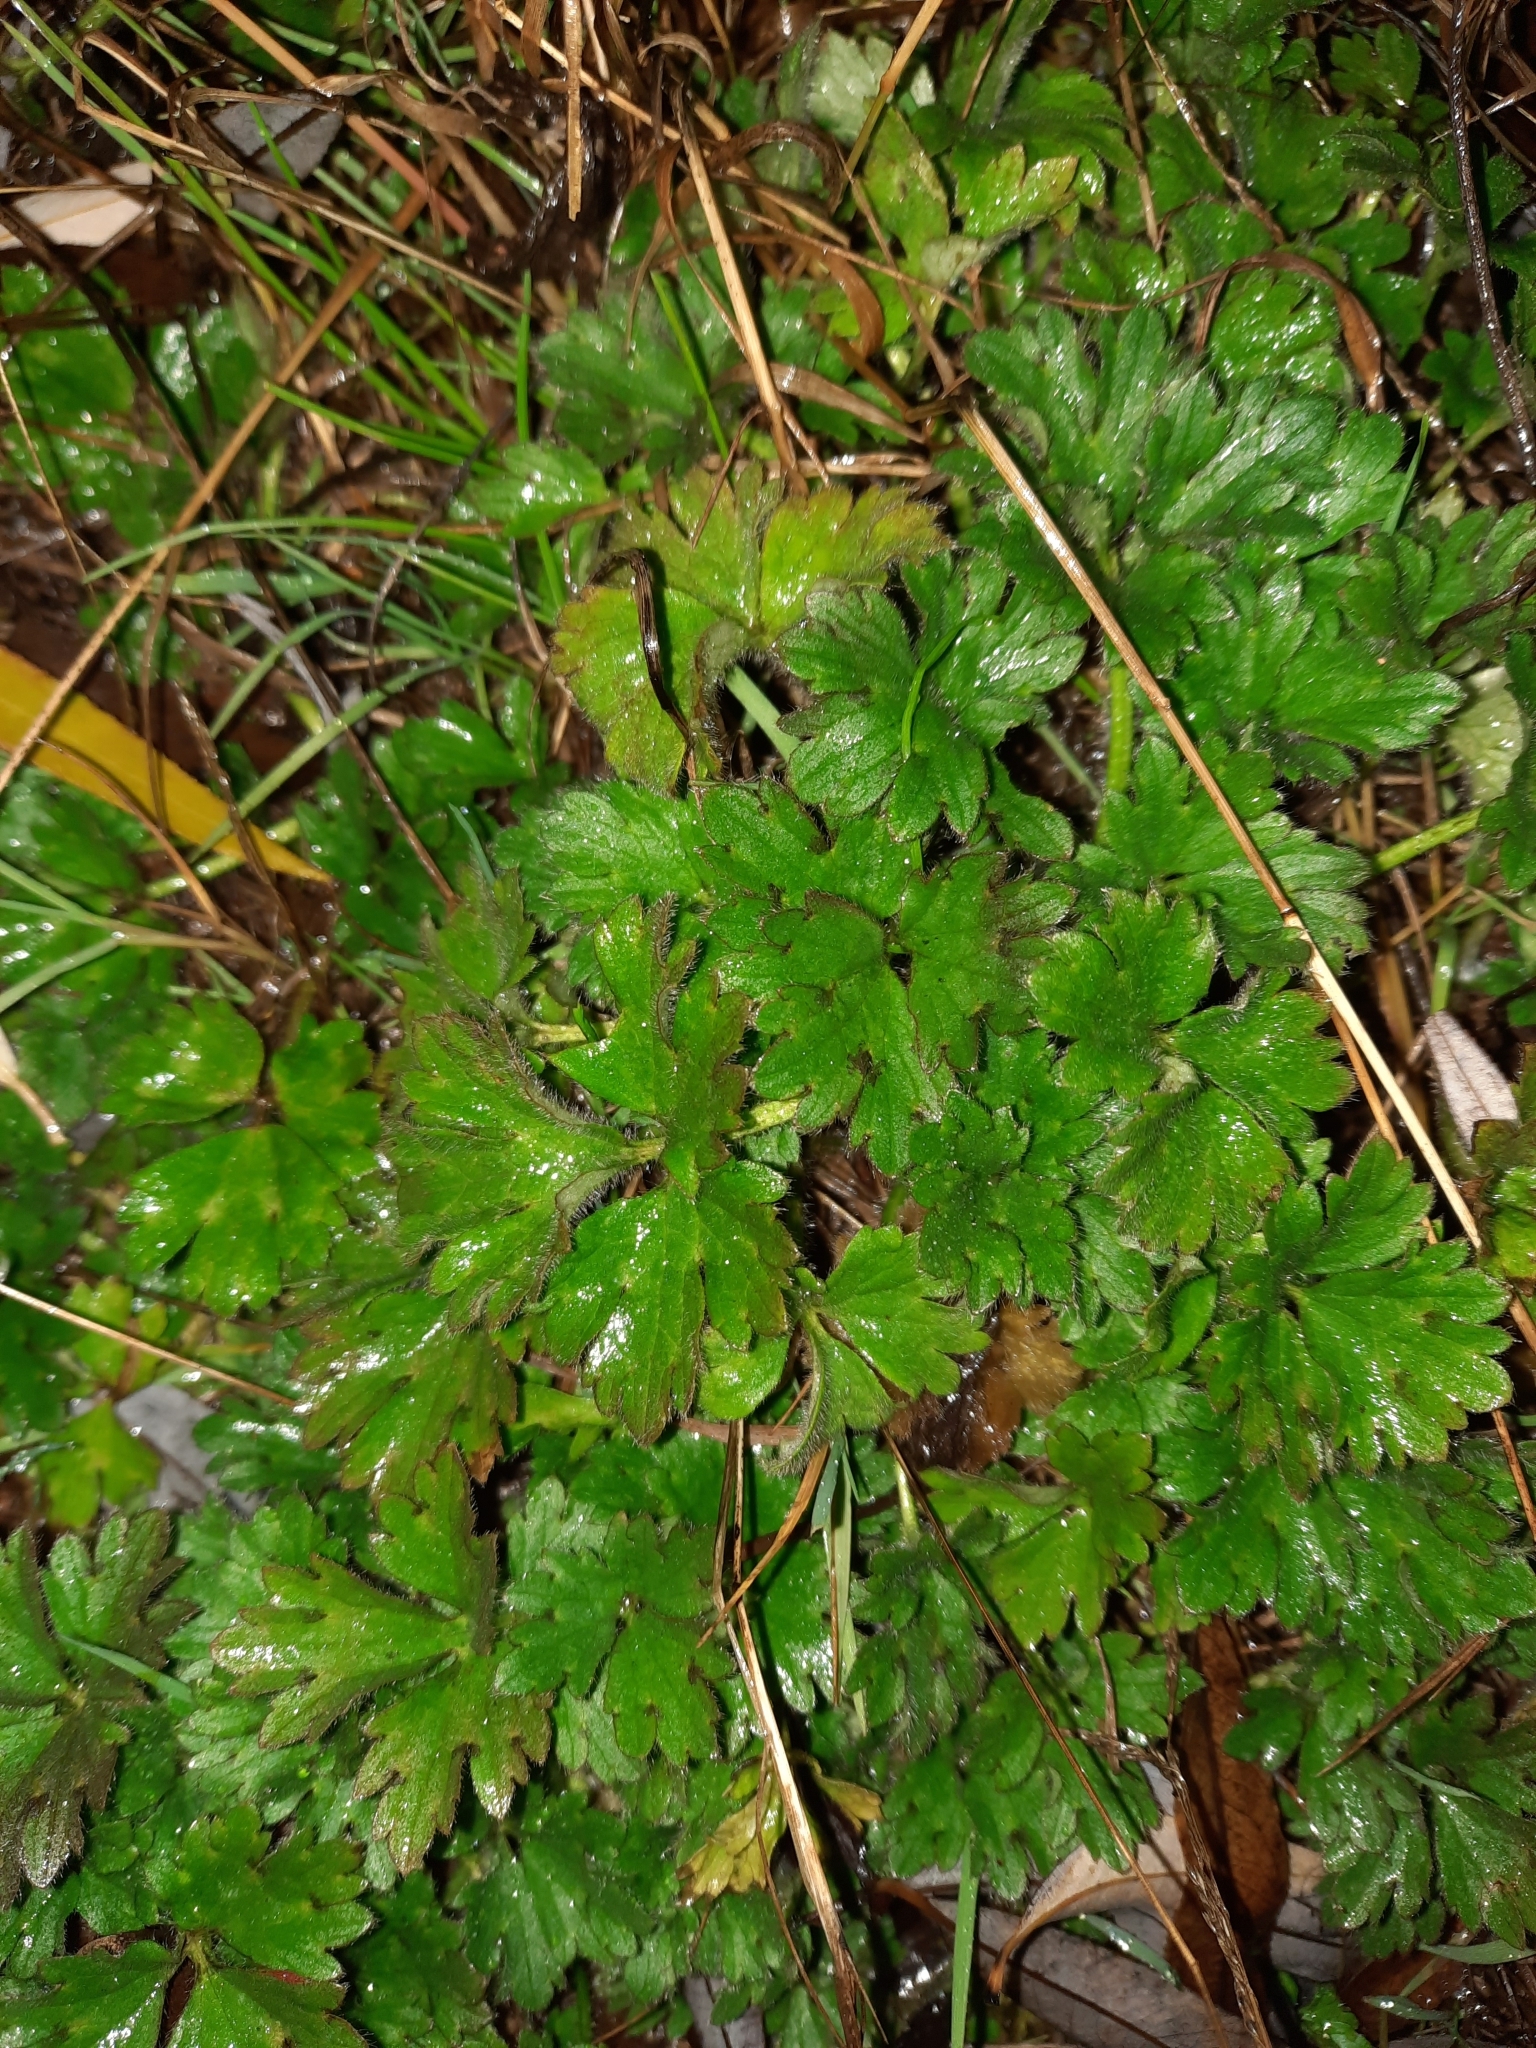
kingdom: Plantae
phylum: Tracheophyta
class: Magnoliopsida
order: Ranunculales
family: Ranunculaceae
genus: Ranunculus
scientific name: Ranunculus repens
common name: Creeping buttercup
